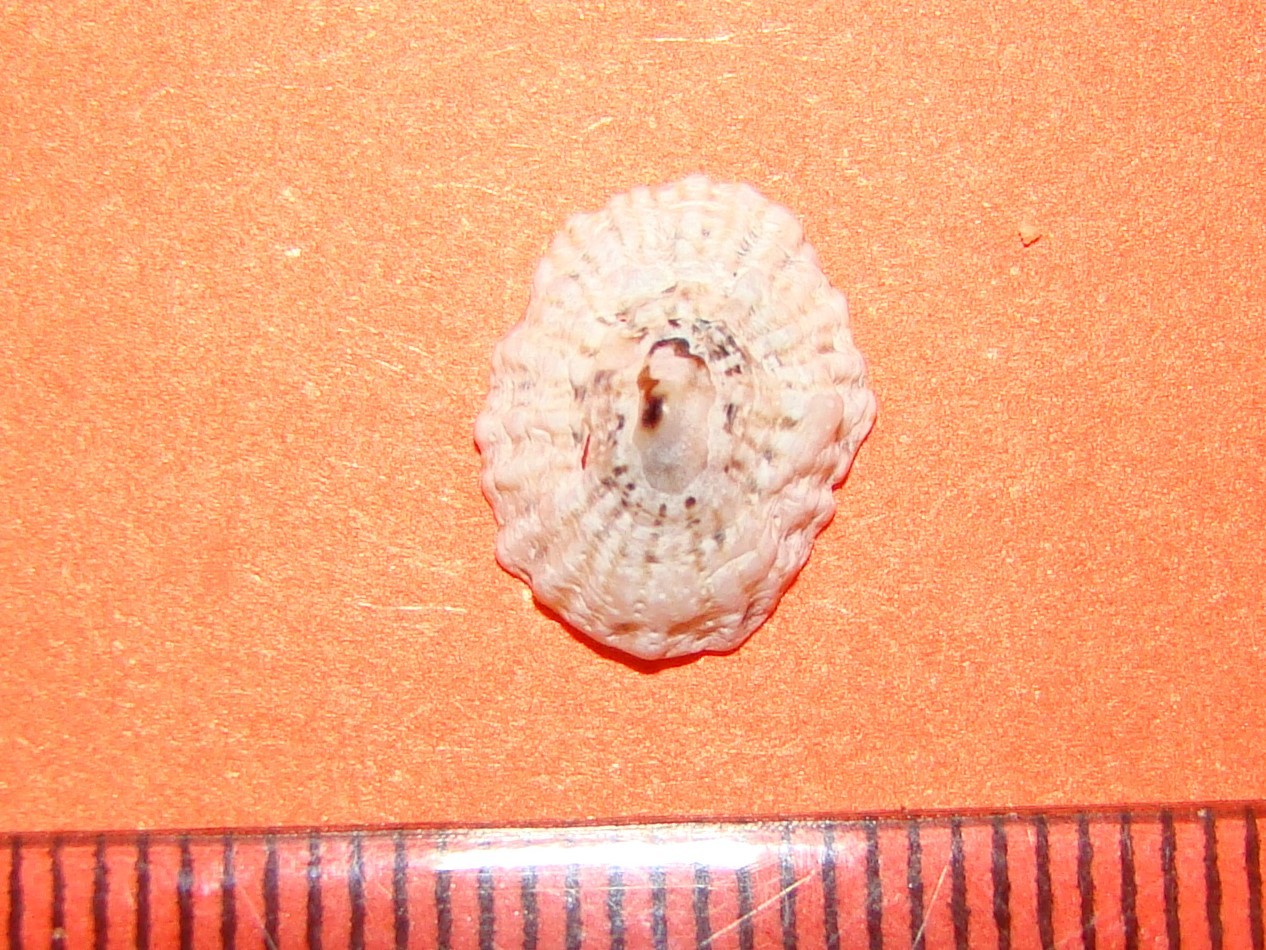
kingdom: Animalia
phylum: Mollusca
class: Gastropoda
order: Siphonariida
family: Siphonariidae
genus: Siphonaria
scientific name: Siphonaria australis
